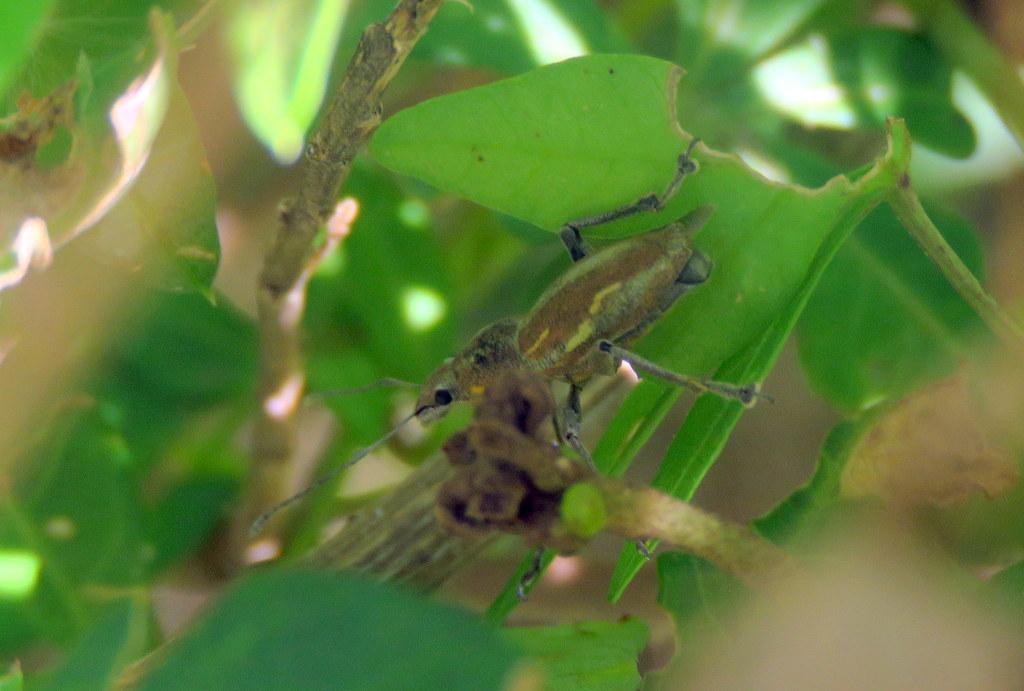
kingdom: Animalia
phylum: Arthropoda
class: Insecta
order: Coleoptera
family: Curculionidae
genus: Naupactus
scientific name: Naupactus xanthographus
